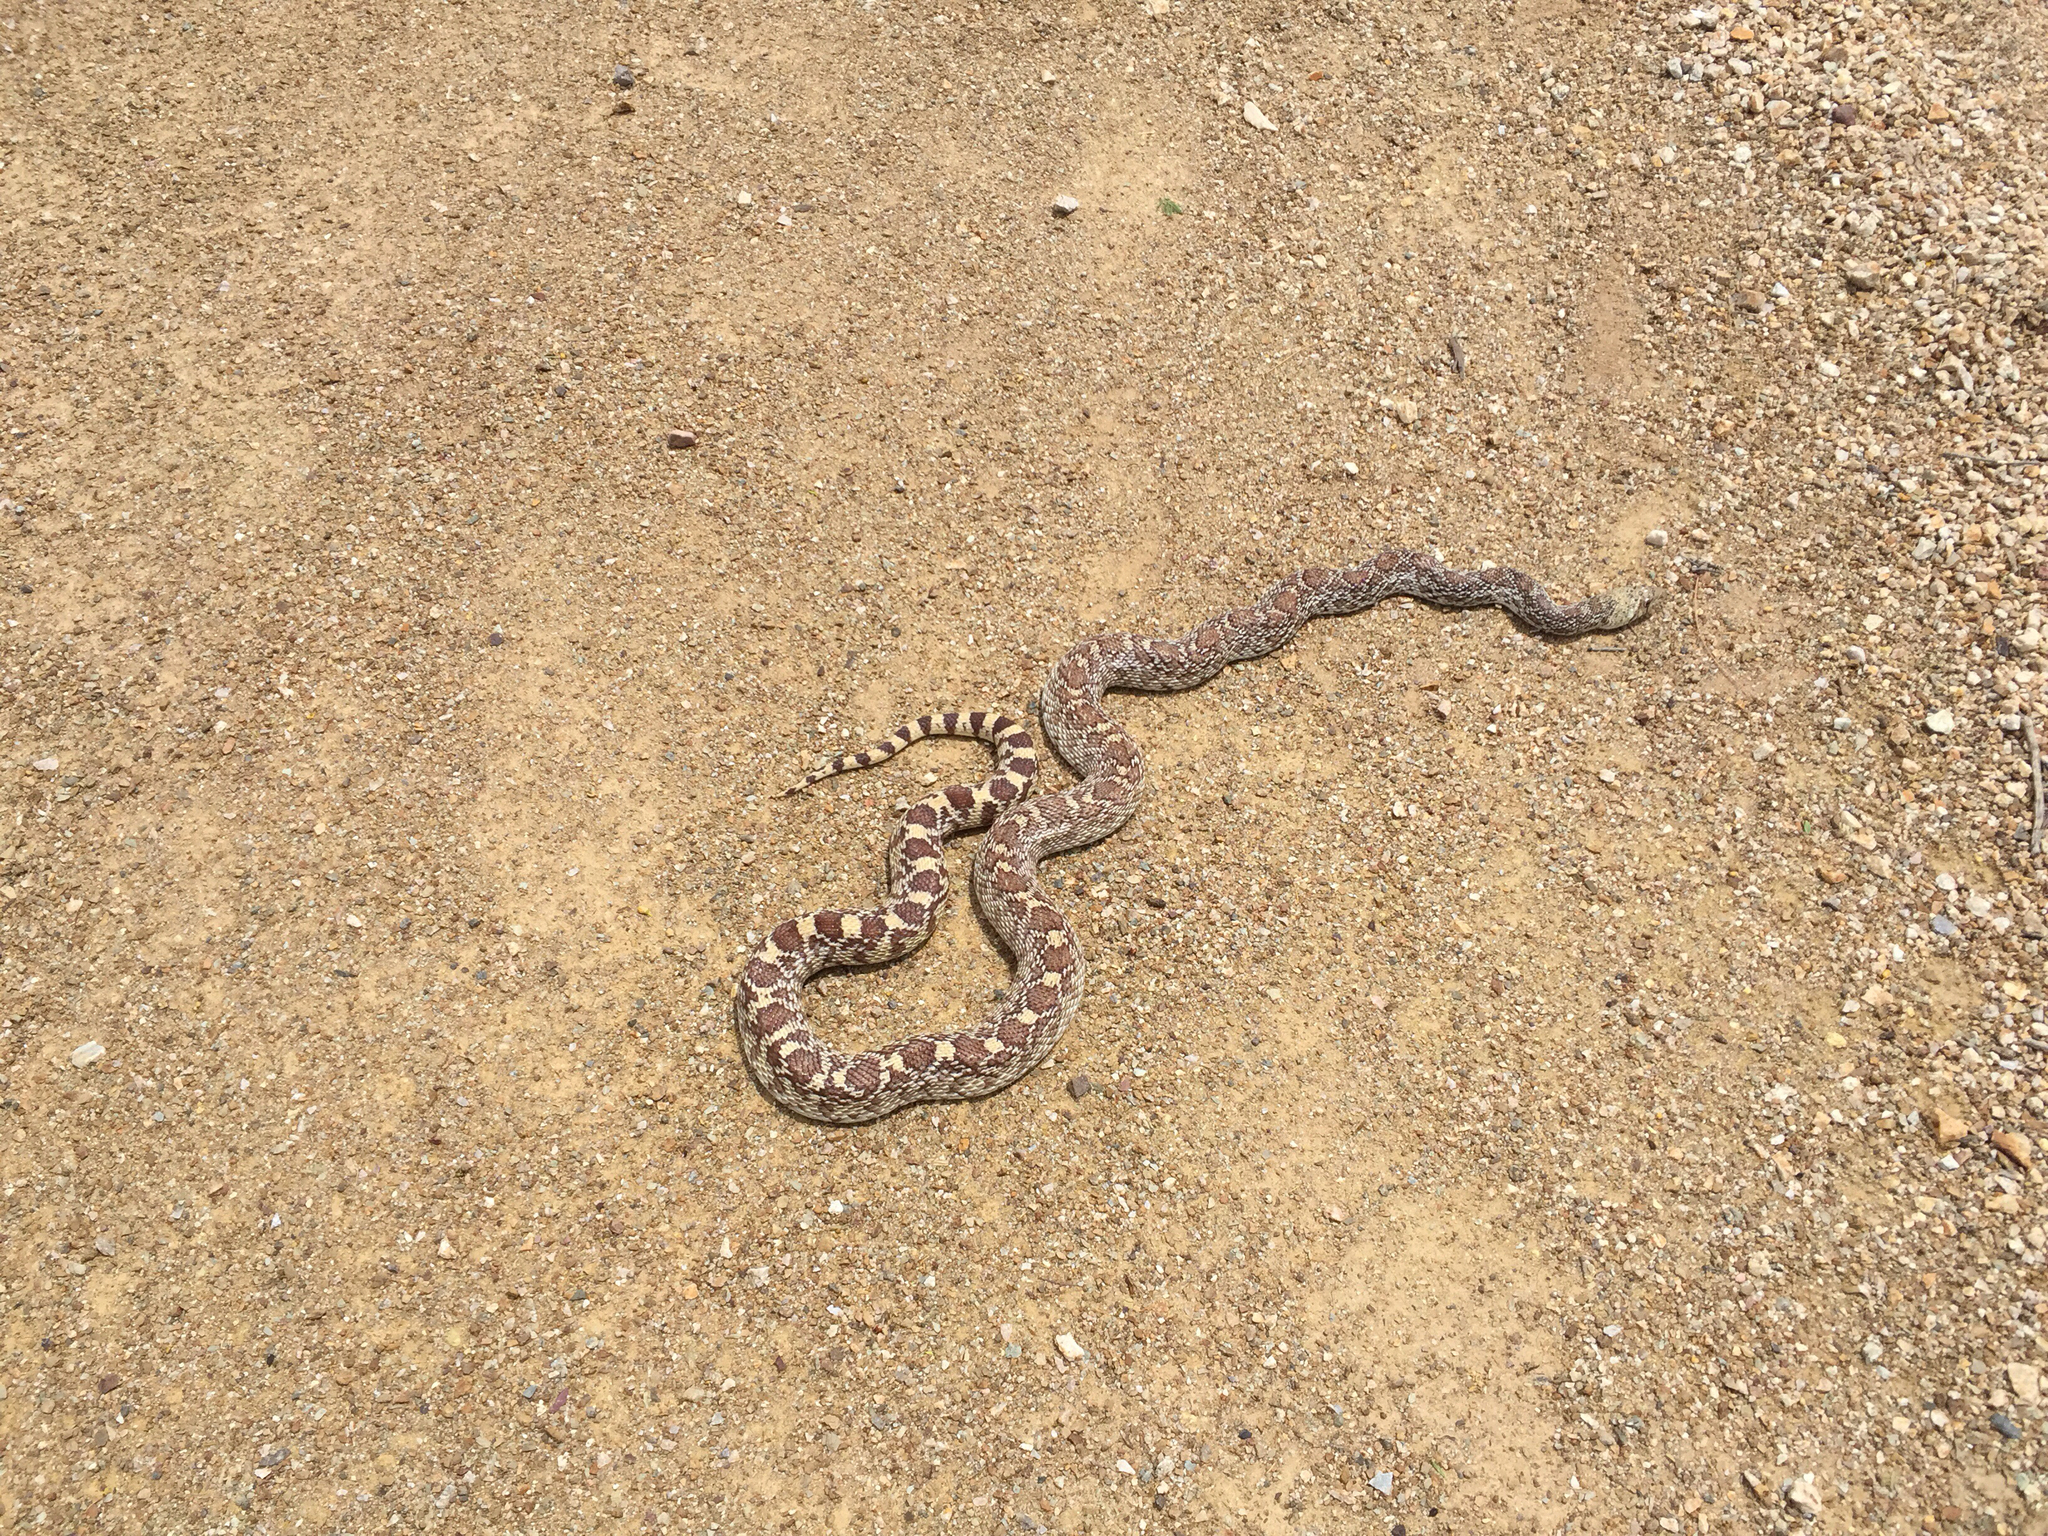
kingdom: Animalia
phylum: Chordata
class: Squamata
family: Colubridae
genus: Pituophis
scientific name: Pituophis catenifer
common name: Gopher snake
